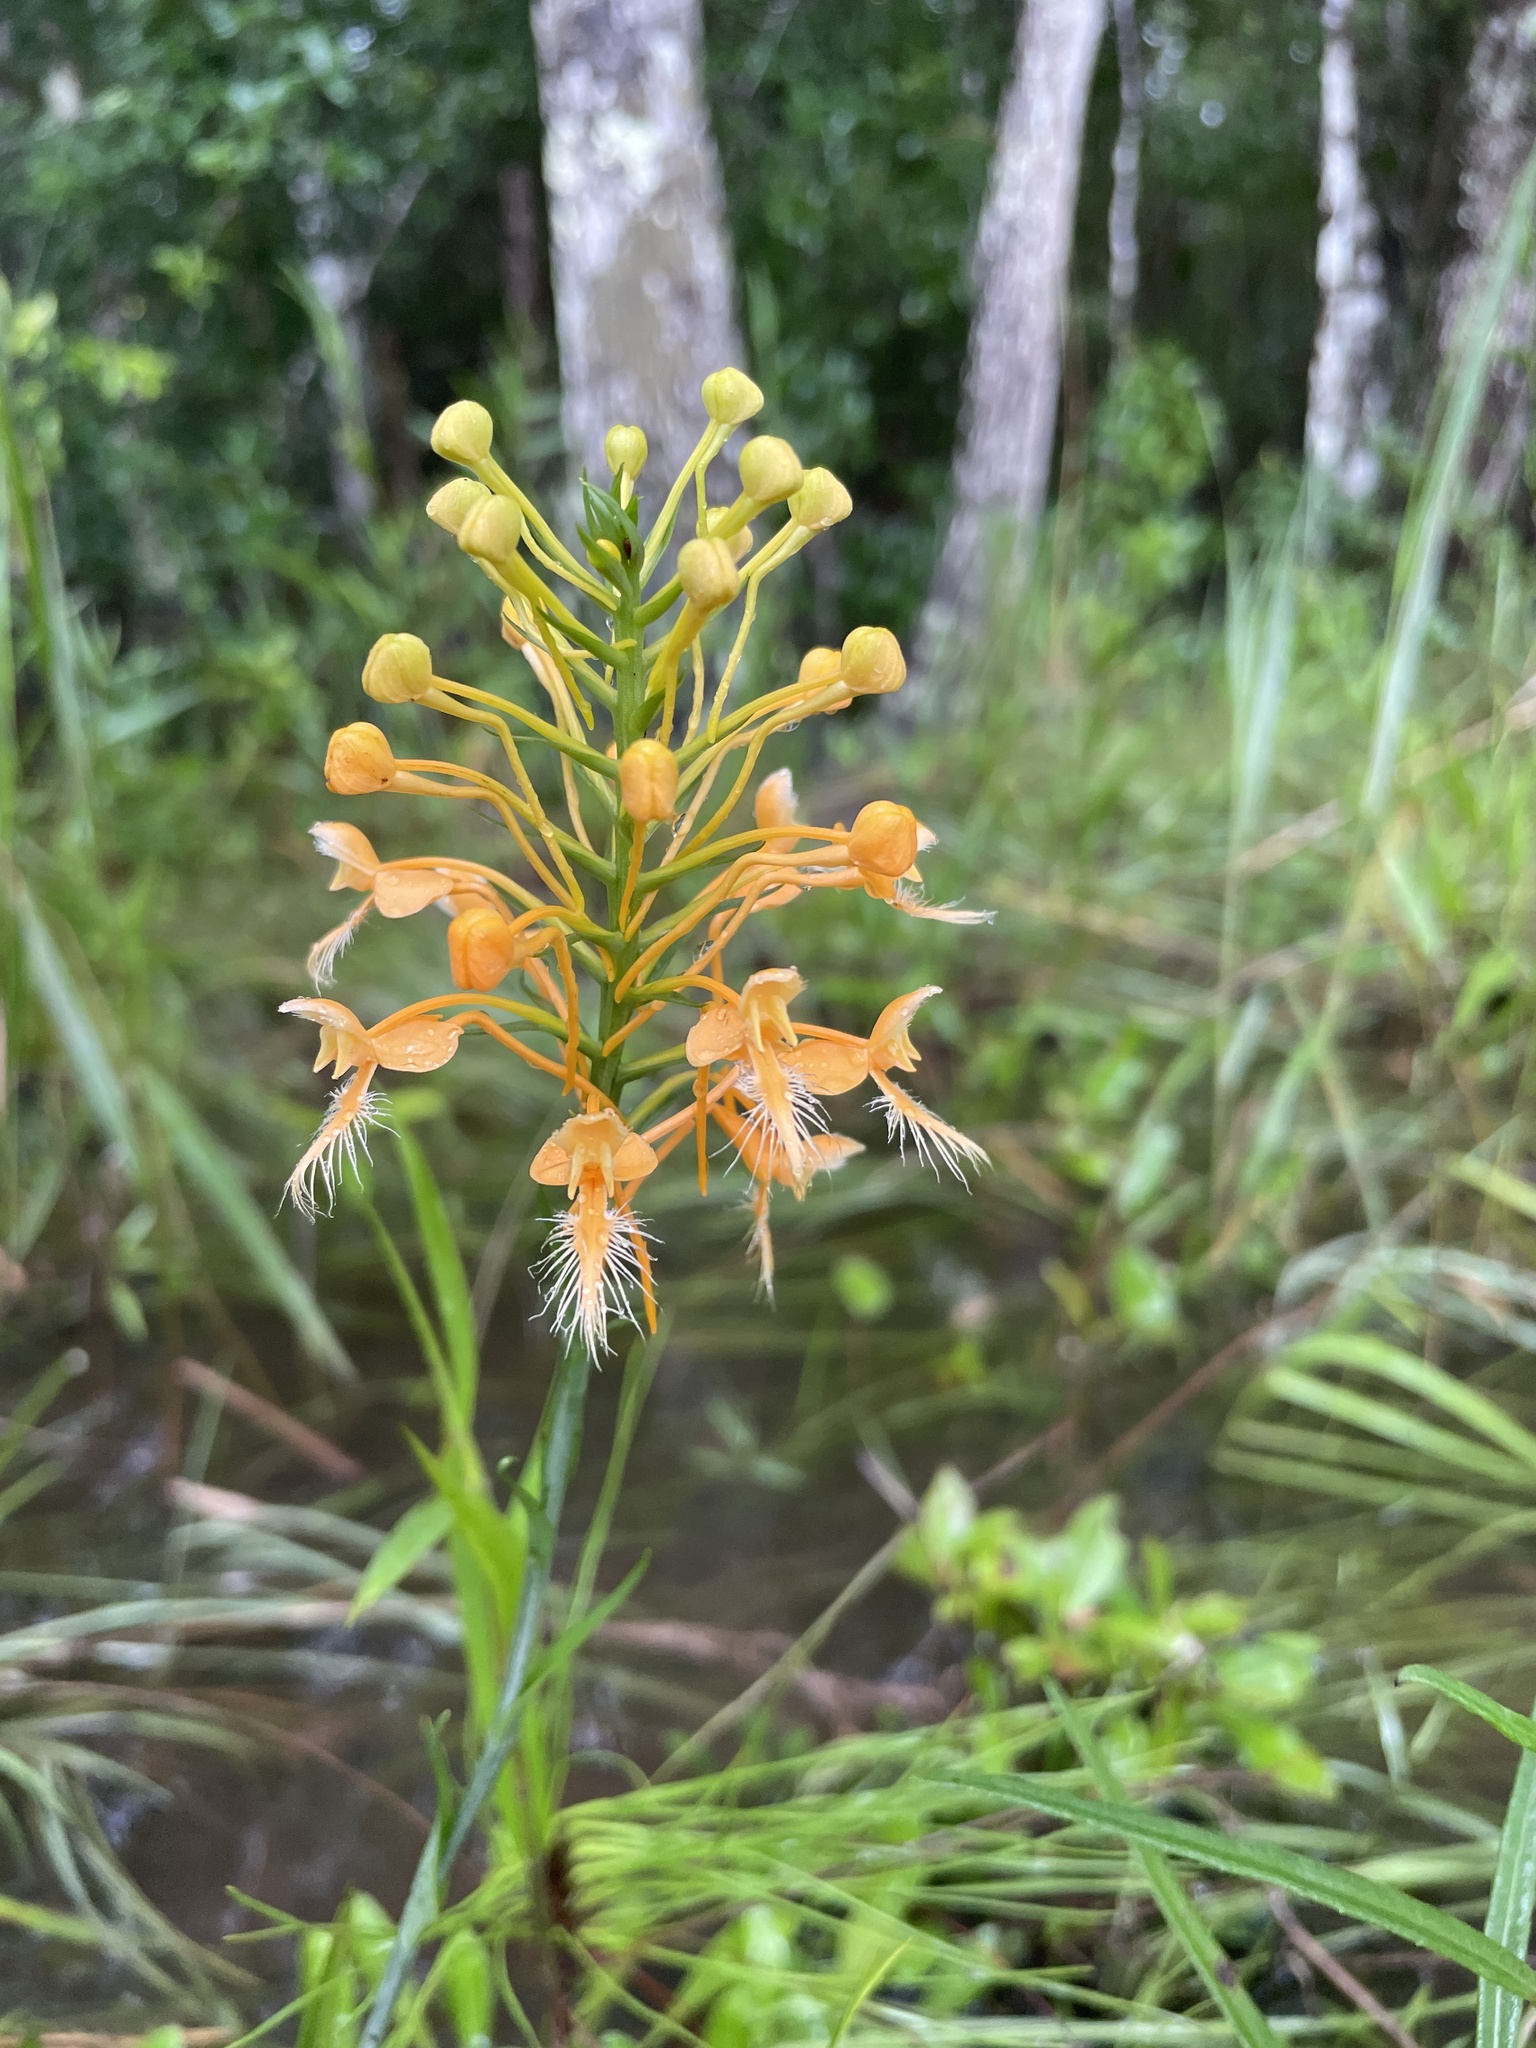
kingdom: Plantae
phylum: Tracheophyta
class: Liliopsida
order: Asparagales
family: Orchidaceae
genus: Platanthera
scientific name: Platanthera ciliaris
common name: Yellow fringed orchid
